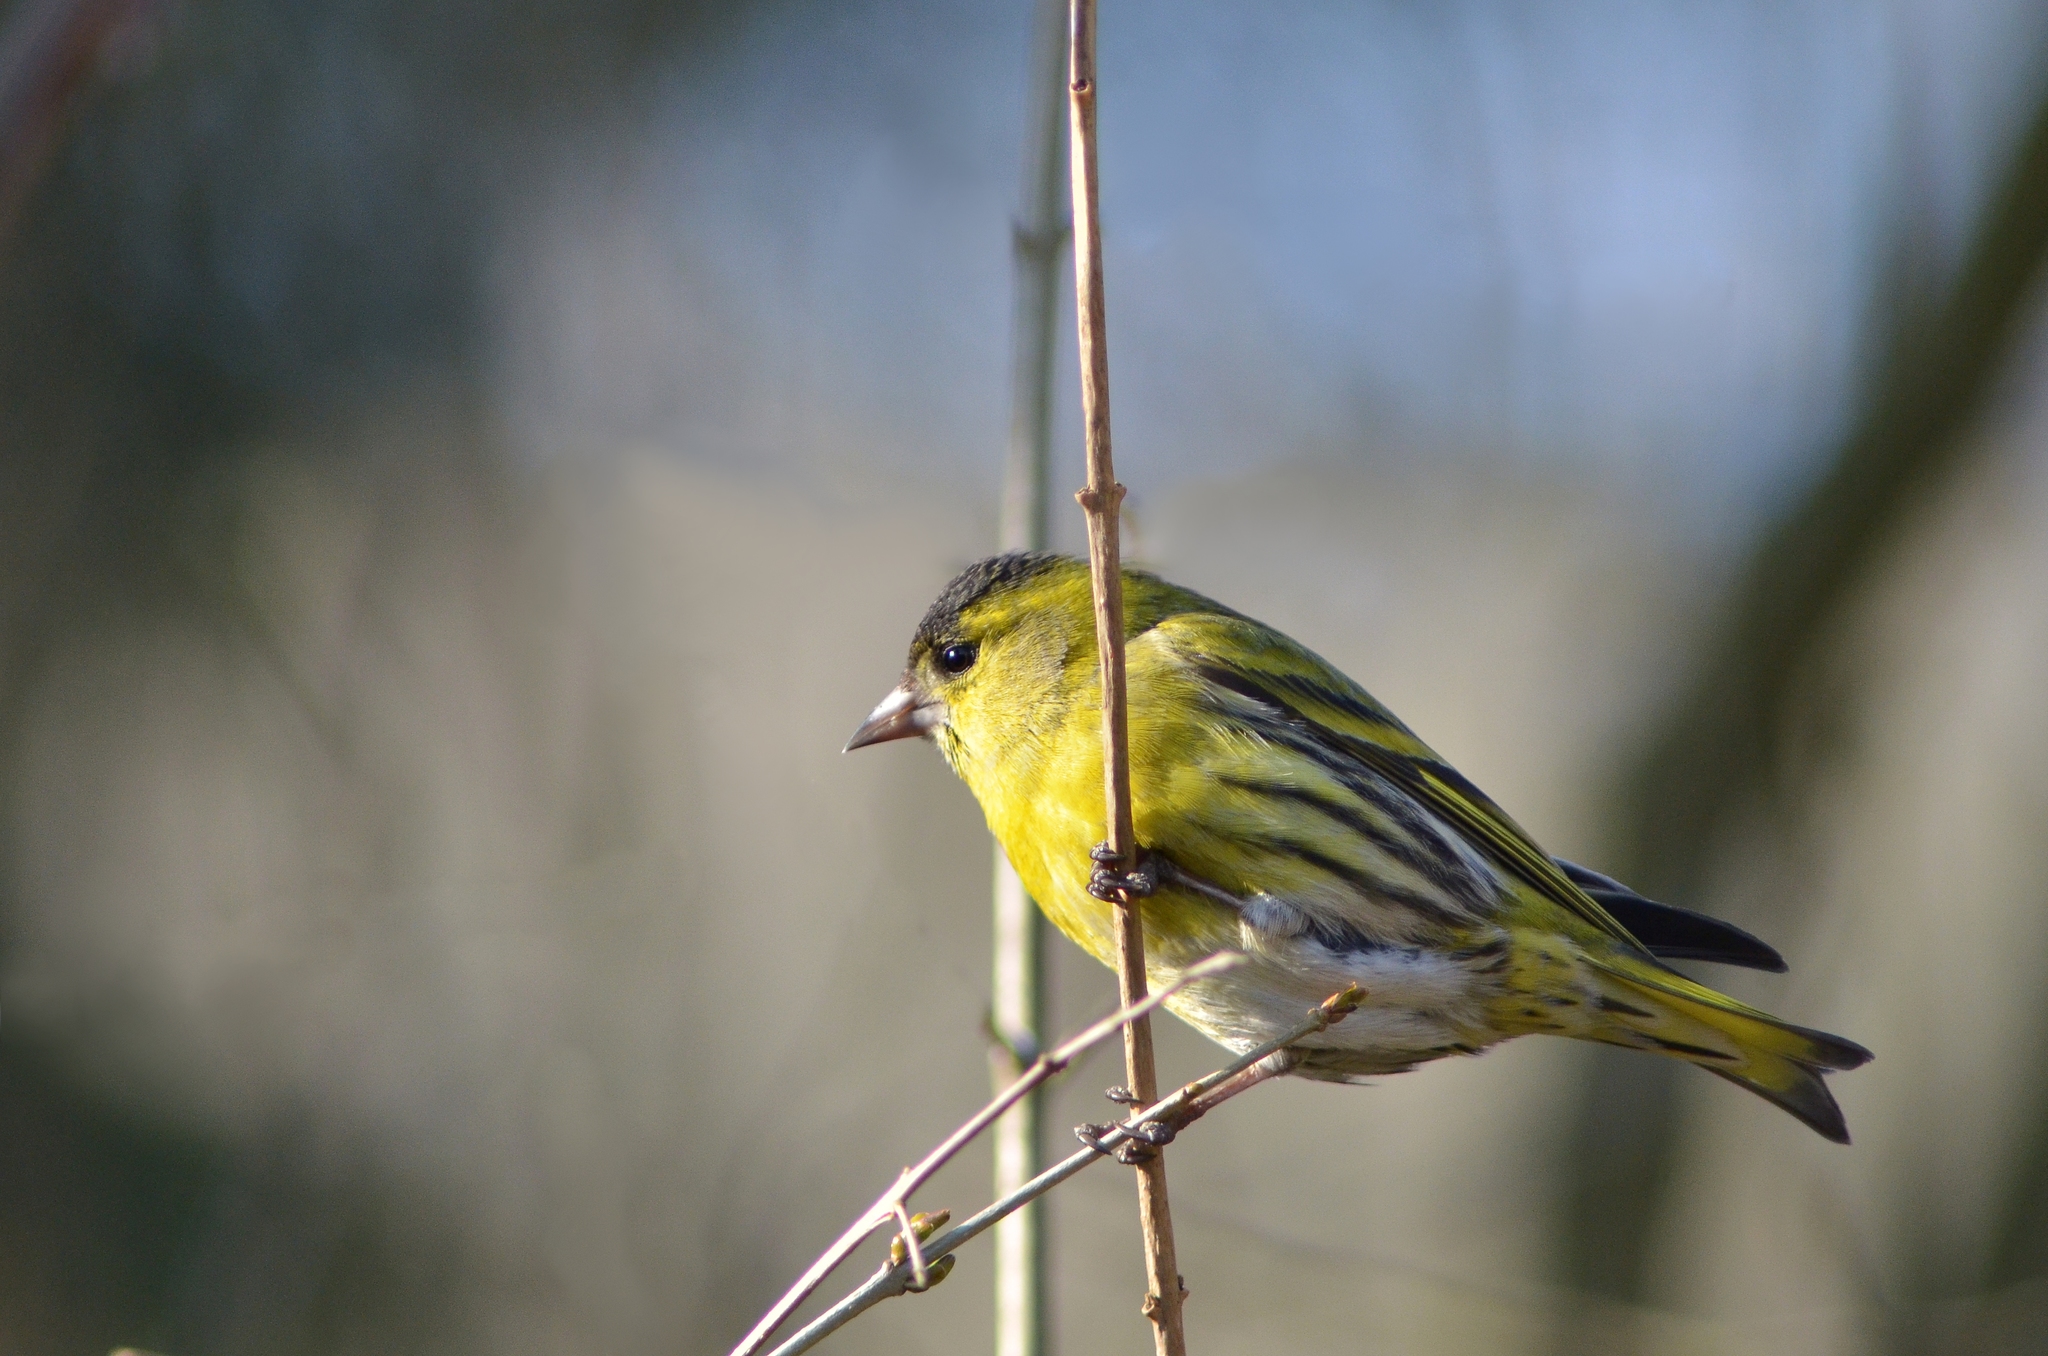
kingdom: Animalia
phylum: Chordata
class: Aves
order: Passeriformes
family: Fringillidae
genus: Spinus
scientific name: Spinus spinus
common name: Eurasian siskin
